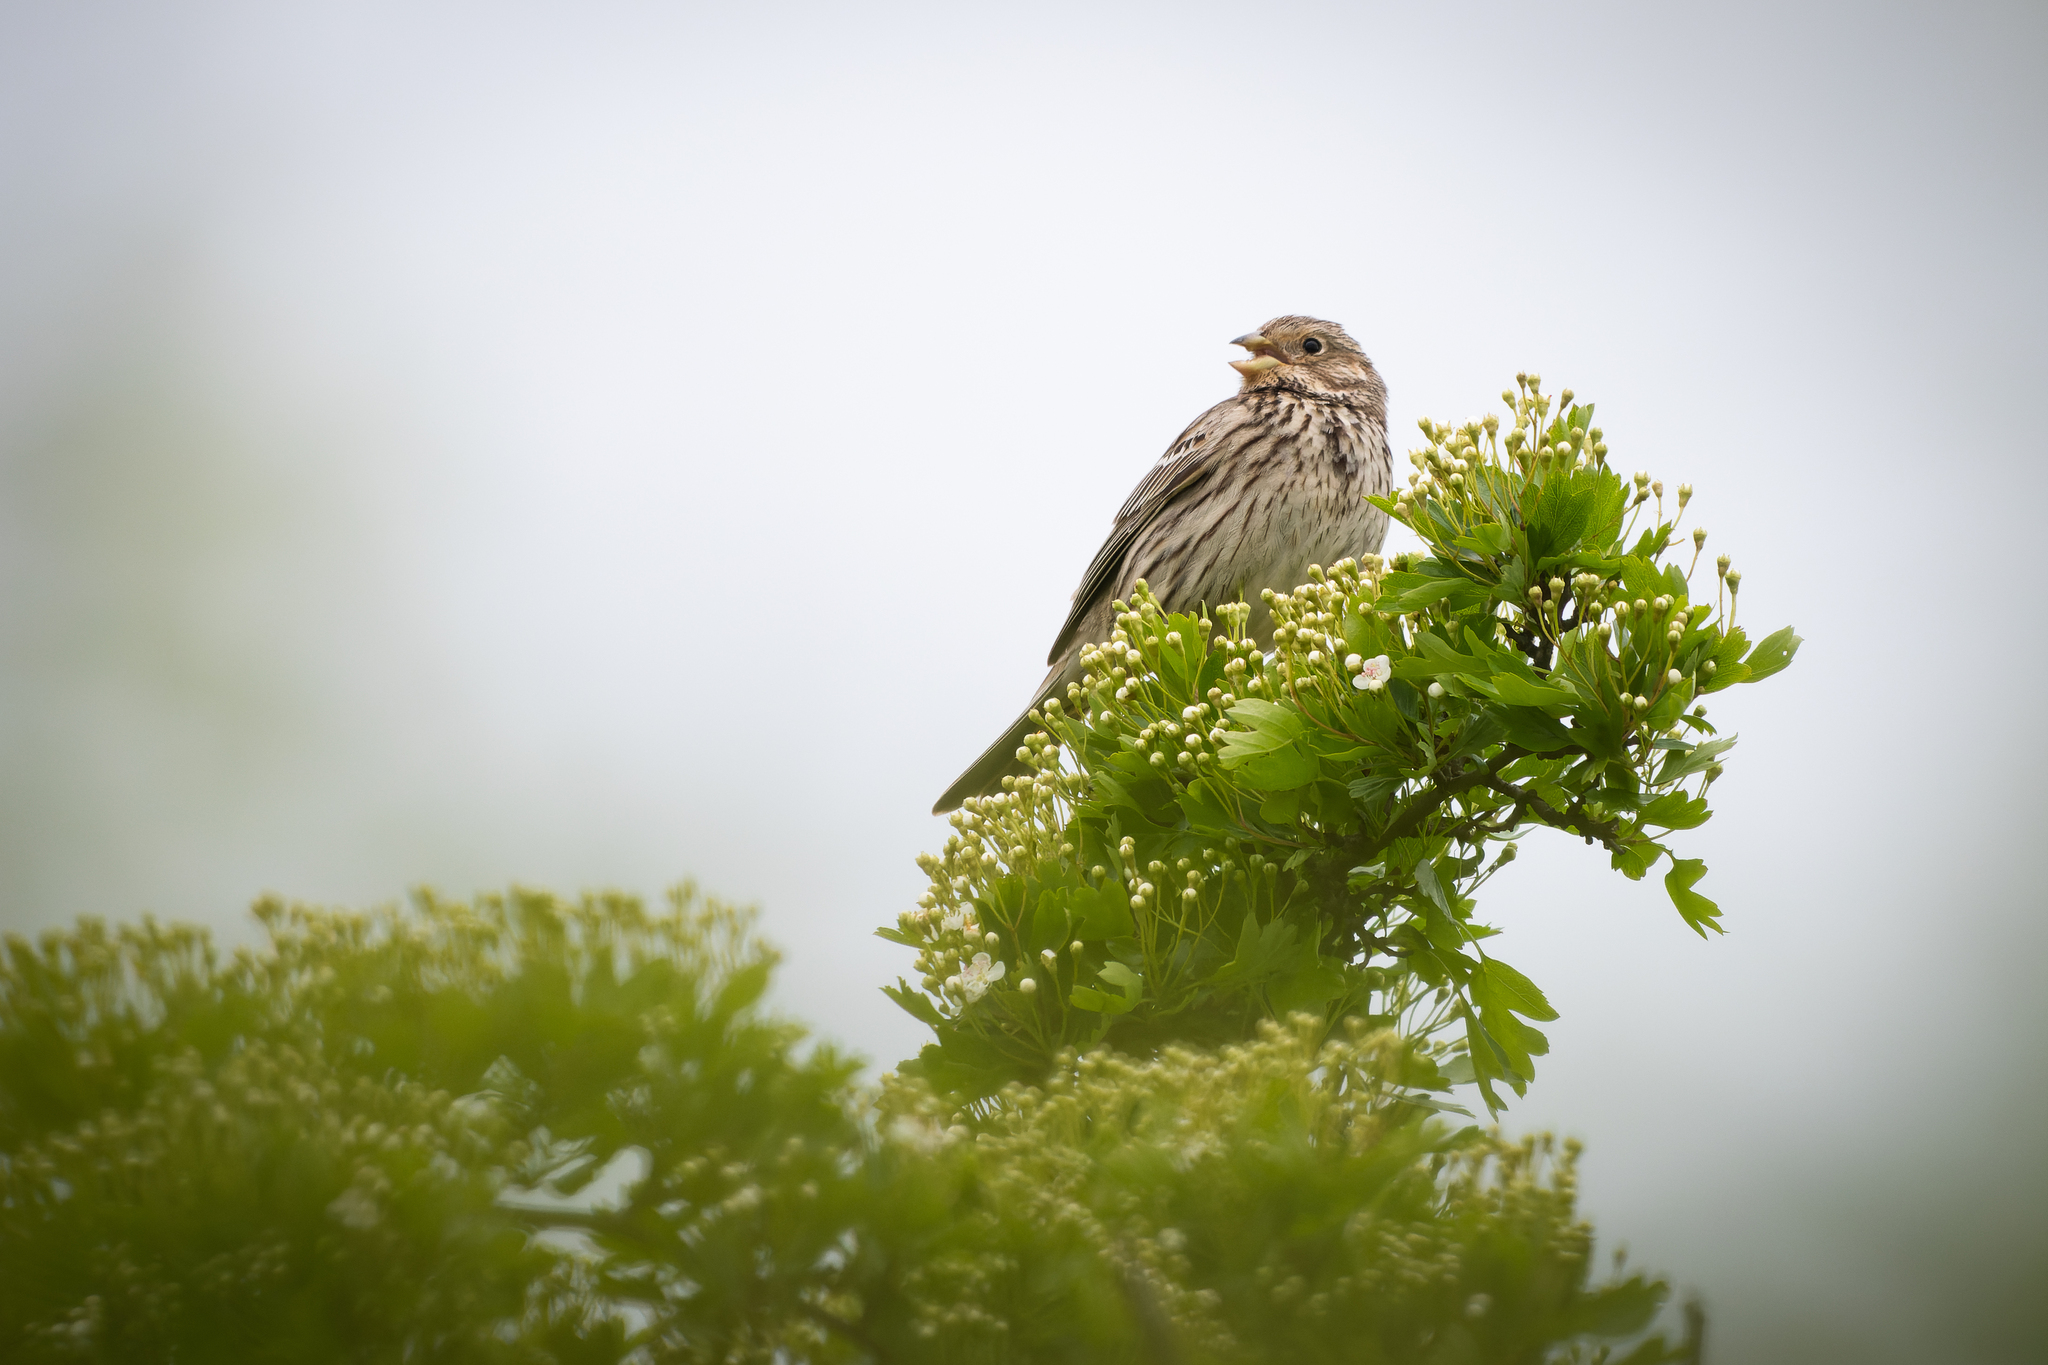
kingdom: Animalia
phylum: Chordata
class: Aves
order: Passeriformes
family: Emberizidae
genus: Emberiza
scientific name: Emberiza calandra
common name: Corn bunting
